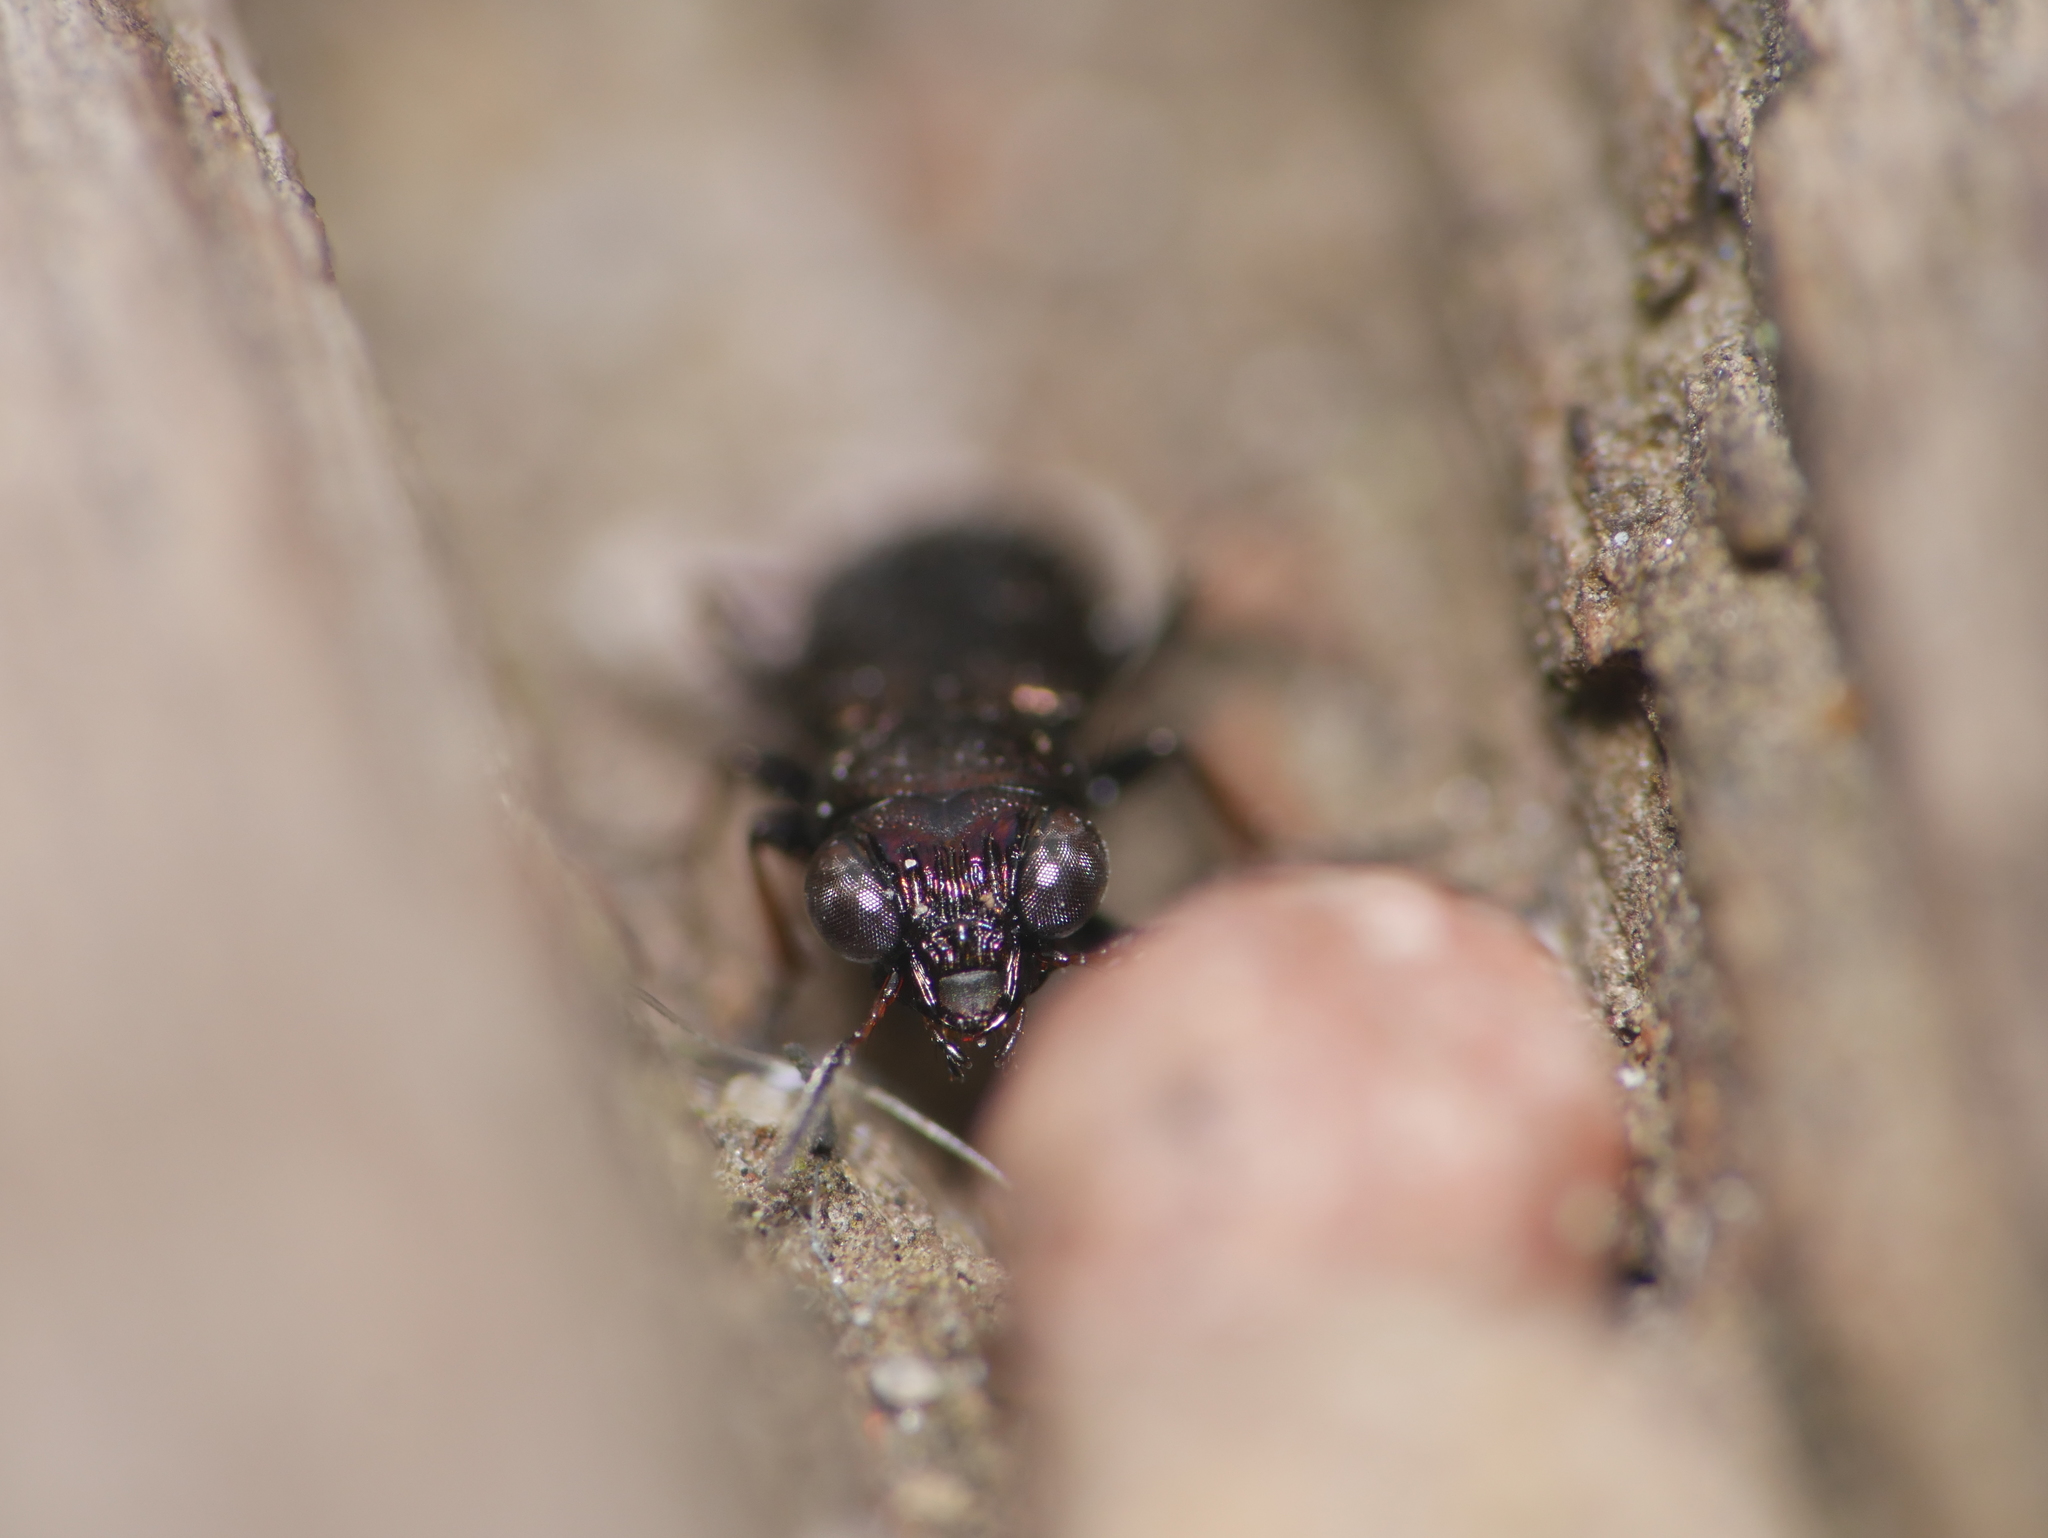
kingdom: Animalia
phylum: Arthropoda
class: Insecta
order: Coleoptera
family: Carabidae
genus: Notiophilus
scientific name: Notiophilus palustris
